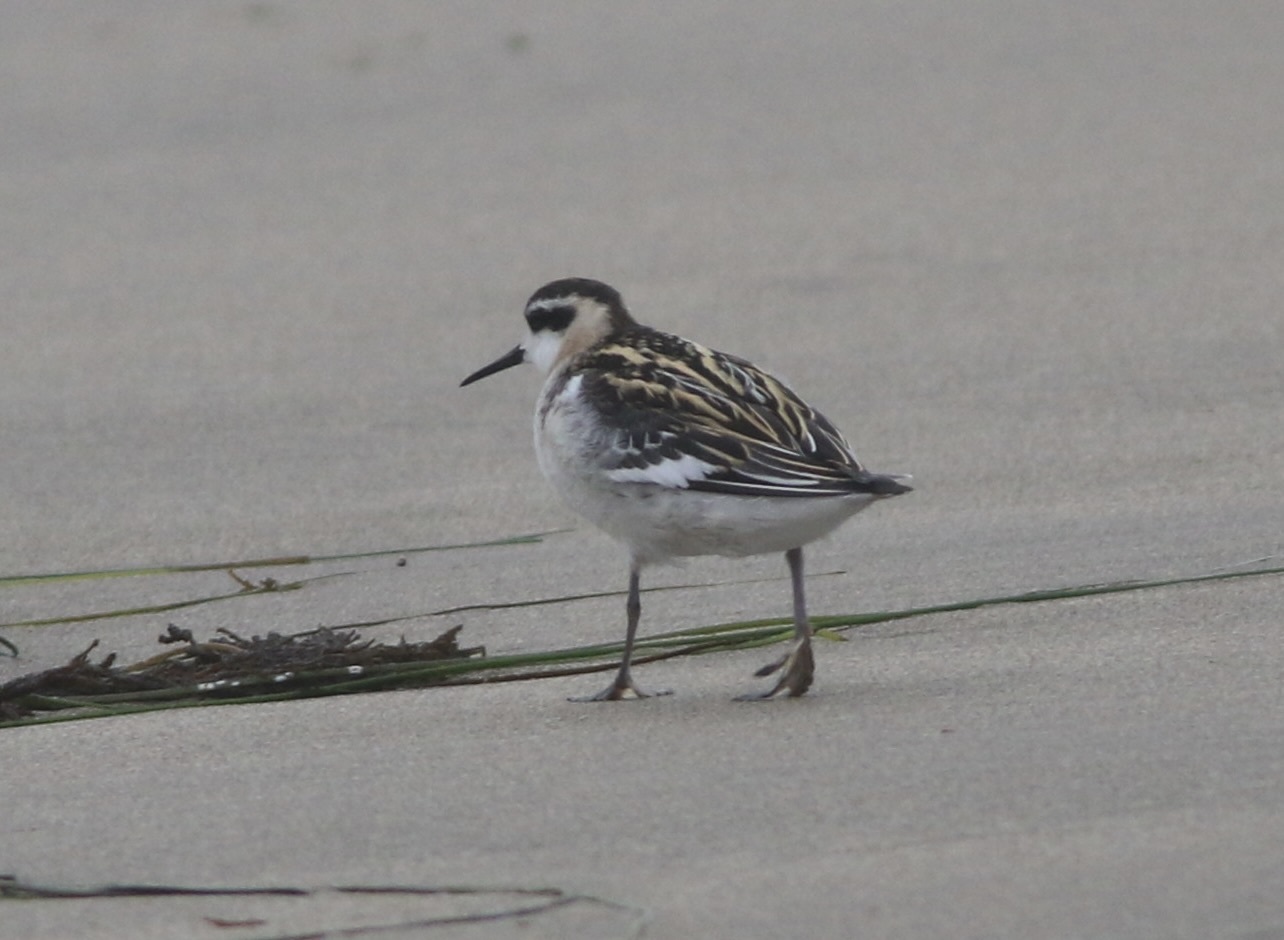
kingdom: Animalia
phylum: Chordata
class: Aves
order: Charadriiformes
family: Scolopacidae
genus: Phalaropus
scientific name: Phalaropus lobatus
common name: Red-necked phalarope
